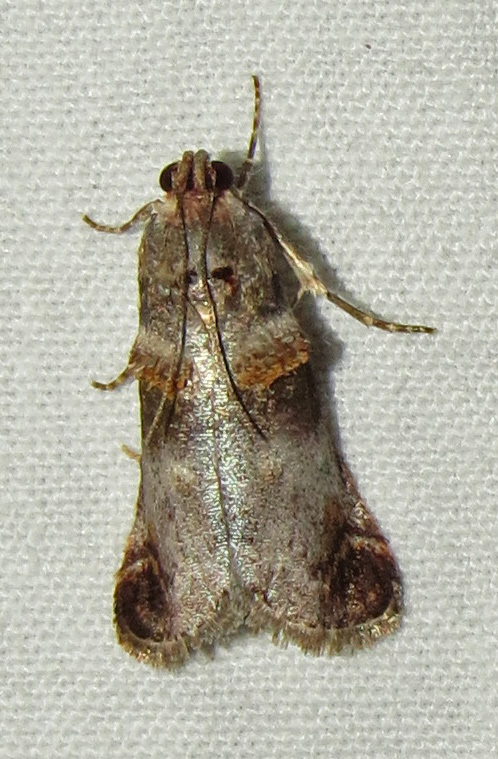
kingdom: Animalia
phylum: Arthropoda
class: Insecta
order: Lepidoptera
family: Pyralidae
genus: Oneida
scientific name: Oneida lunulalis
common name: Orange-tufted oneida moth
